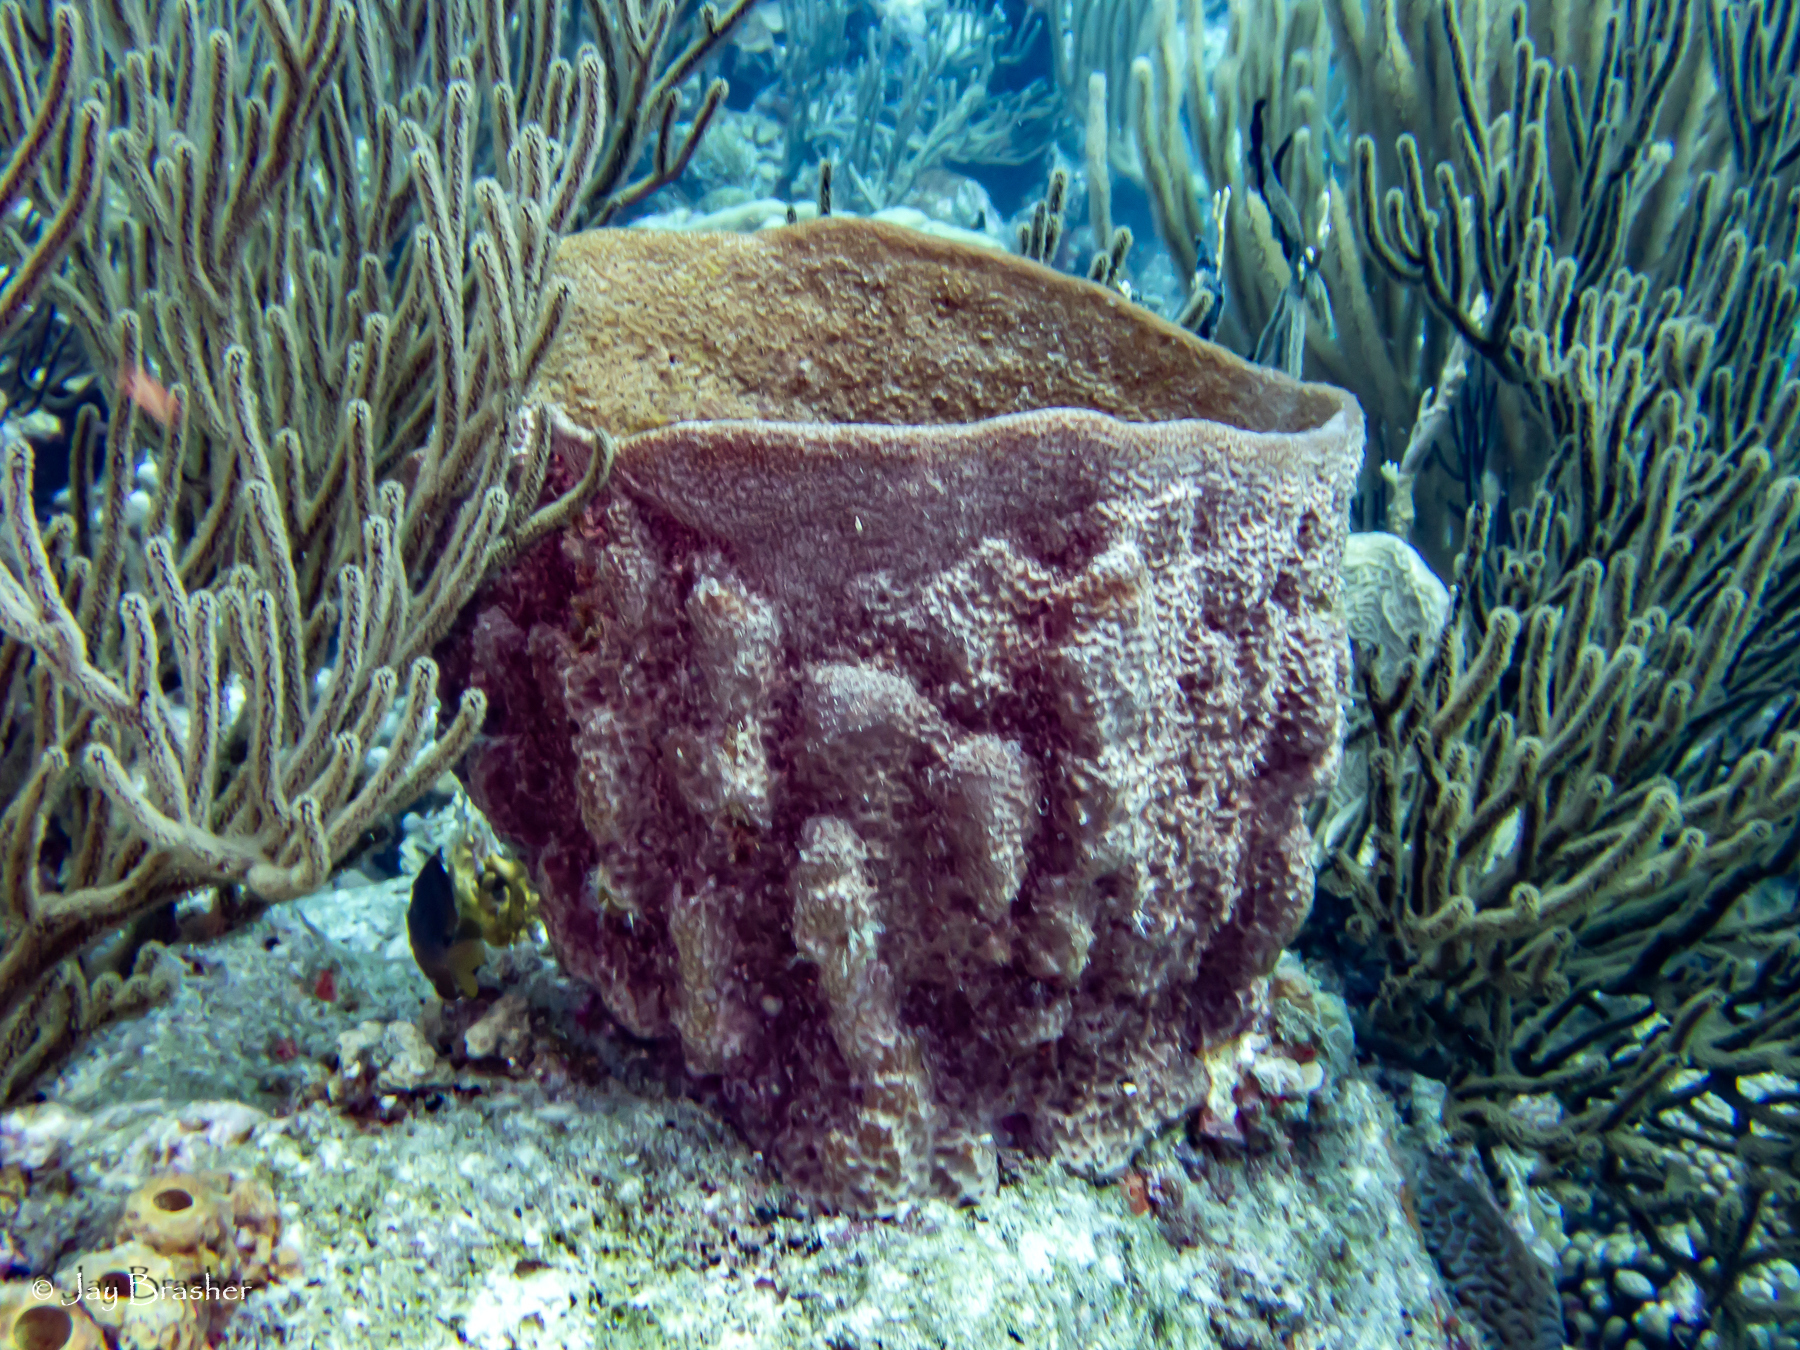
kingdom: Animalia
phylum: Porifera
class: Demospongiae
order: Dictyoceratida
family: Irciniidae
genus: Ircinia
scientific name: Ircinia campana
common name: Vase sponge
